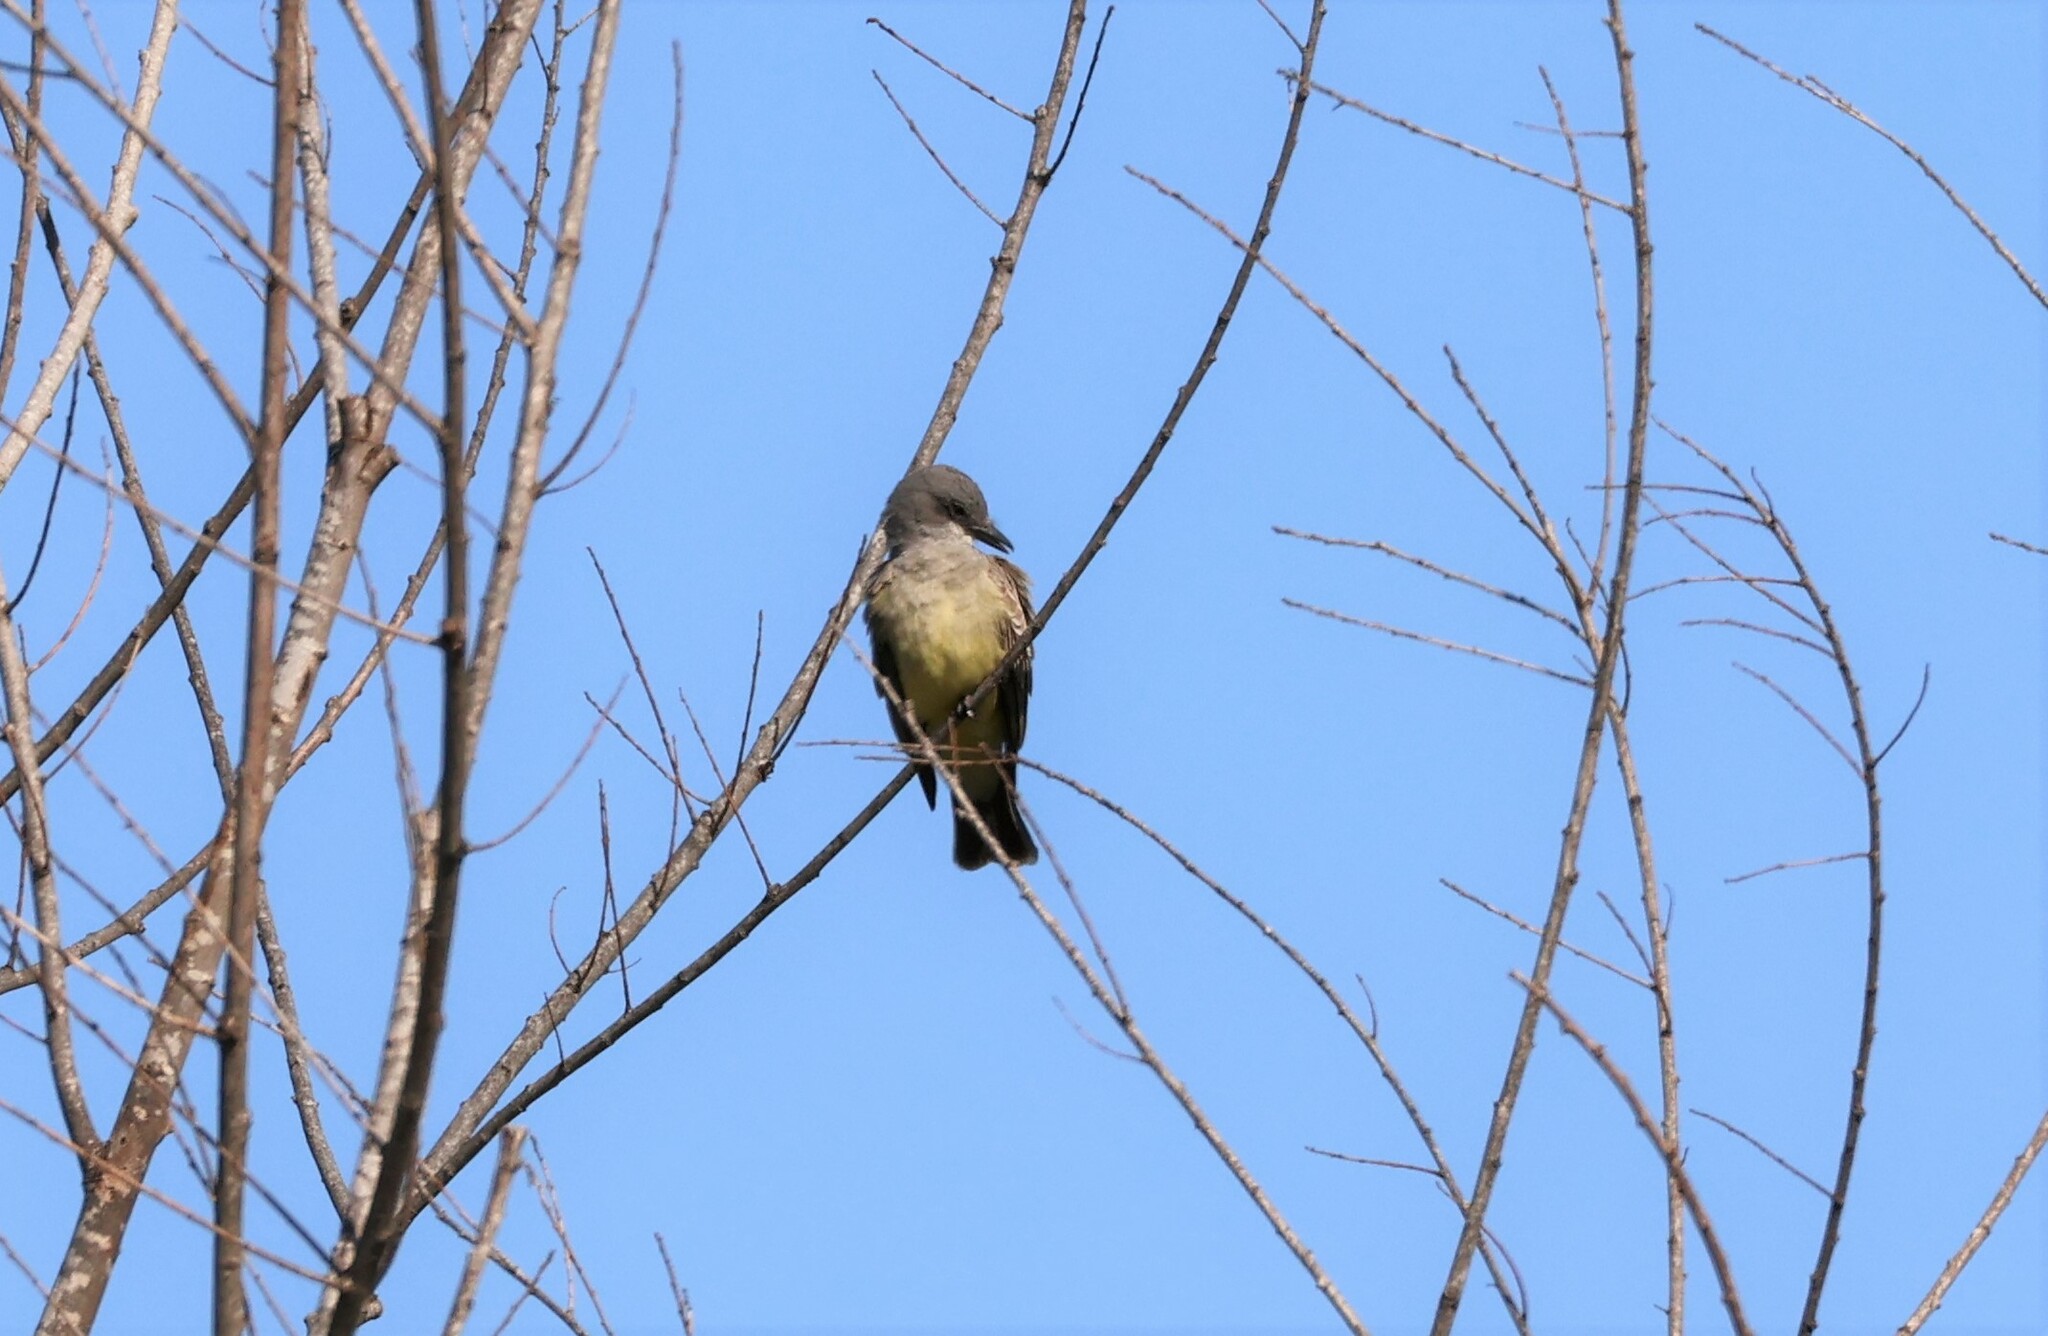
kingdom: Animalia
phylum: Chordata
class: Aves
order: Passeriformes
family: Tyrannidae
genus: Tyrannus
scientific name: Tyrannus vociferans
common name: Cassin's kingbird
